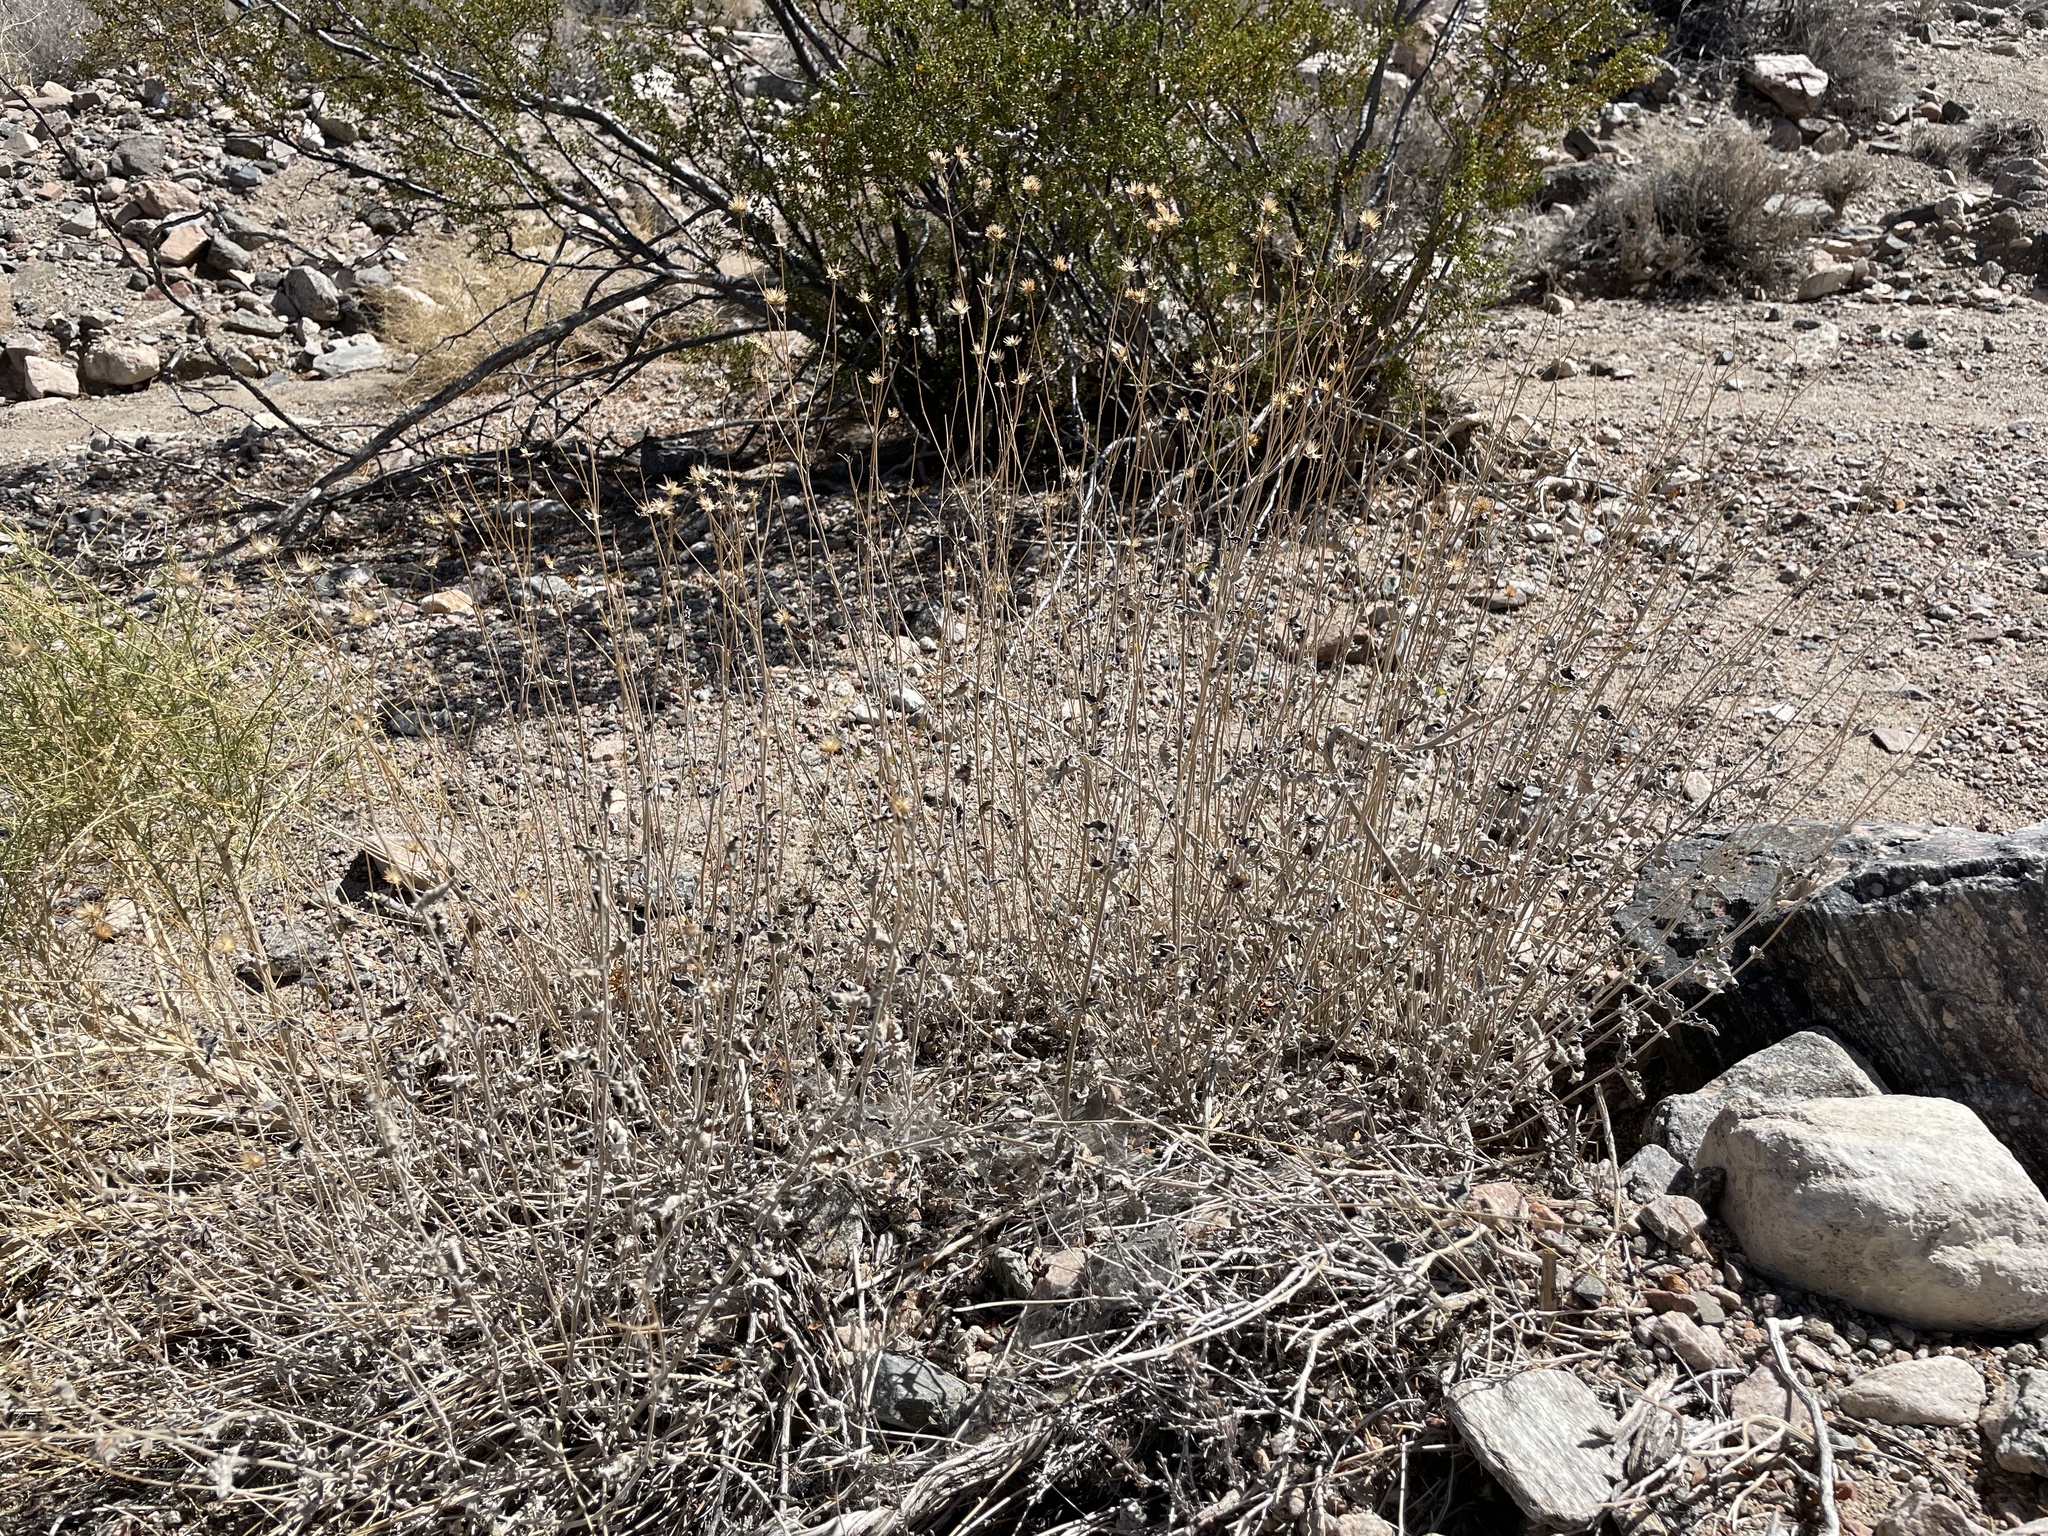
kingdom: Plantae
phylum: Tracheophyta
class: Magnoliopsida
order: Asterales
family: Asteraceae
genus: Encelia
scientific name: Encelia virginensis
